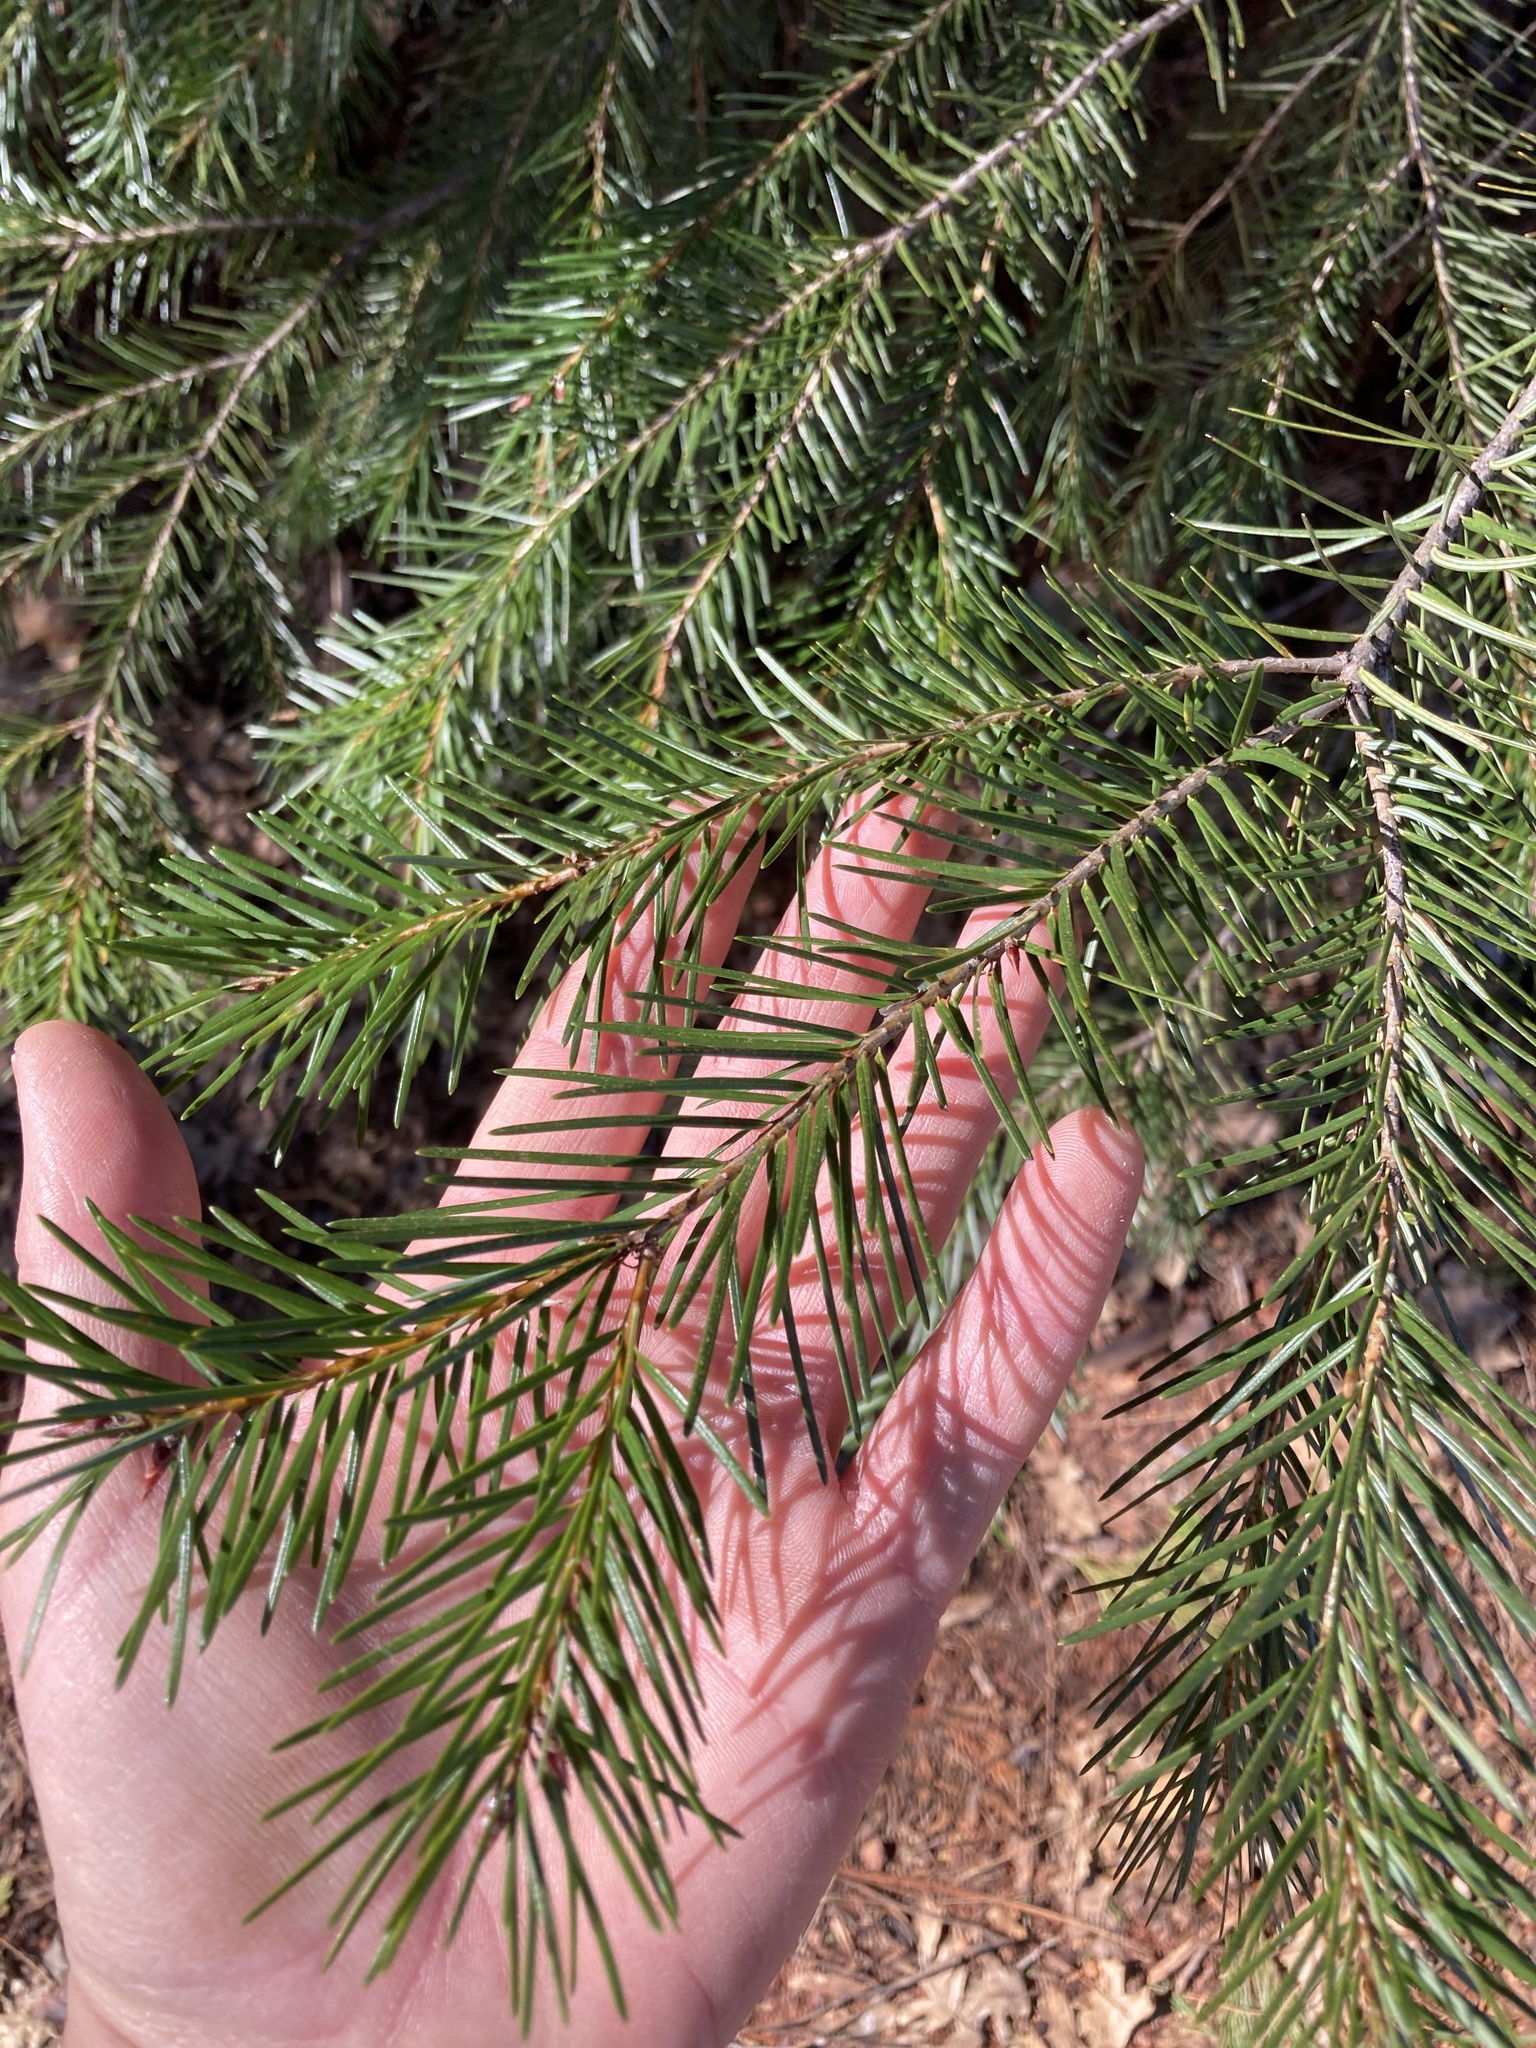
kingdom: Plantae
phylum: Tracheophyta
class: Pinopsida
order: Pinales
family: Pinaceae
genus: Pseudotsuga
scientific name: Pseudotsuga menziesii
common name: Douglas fir
